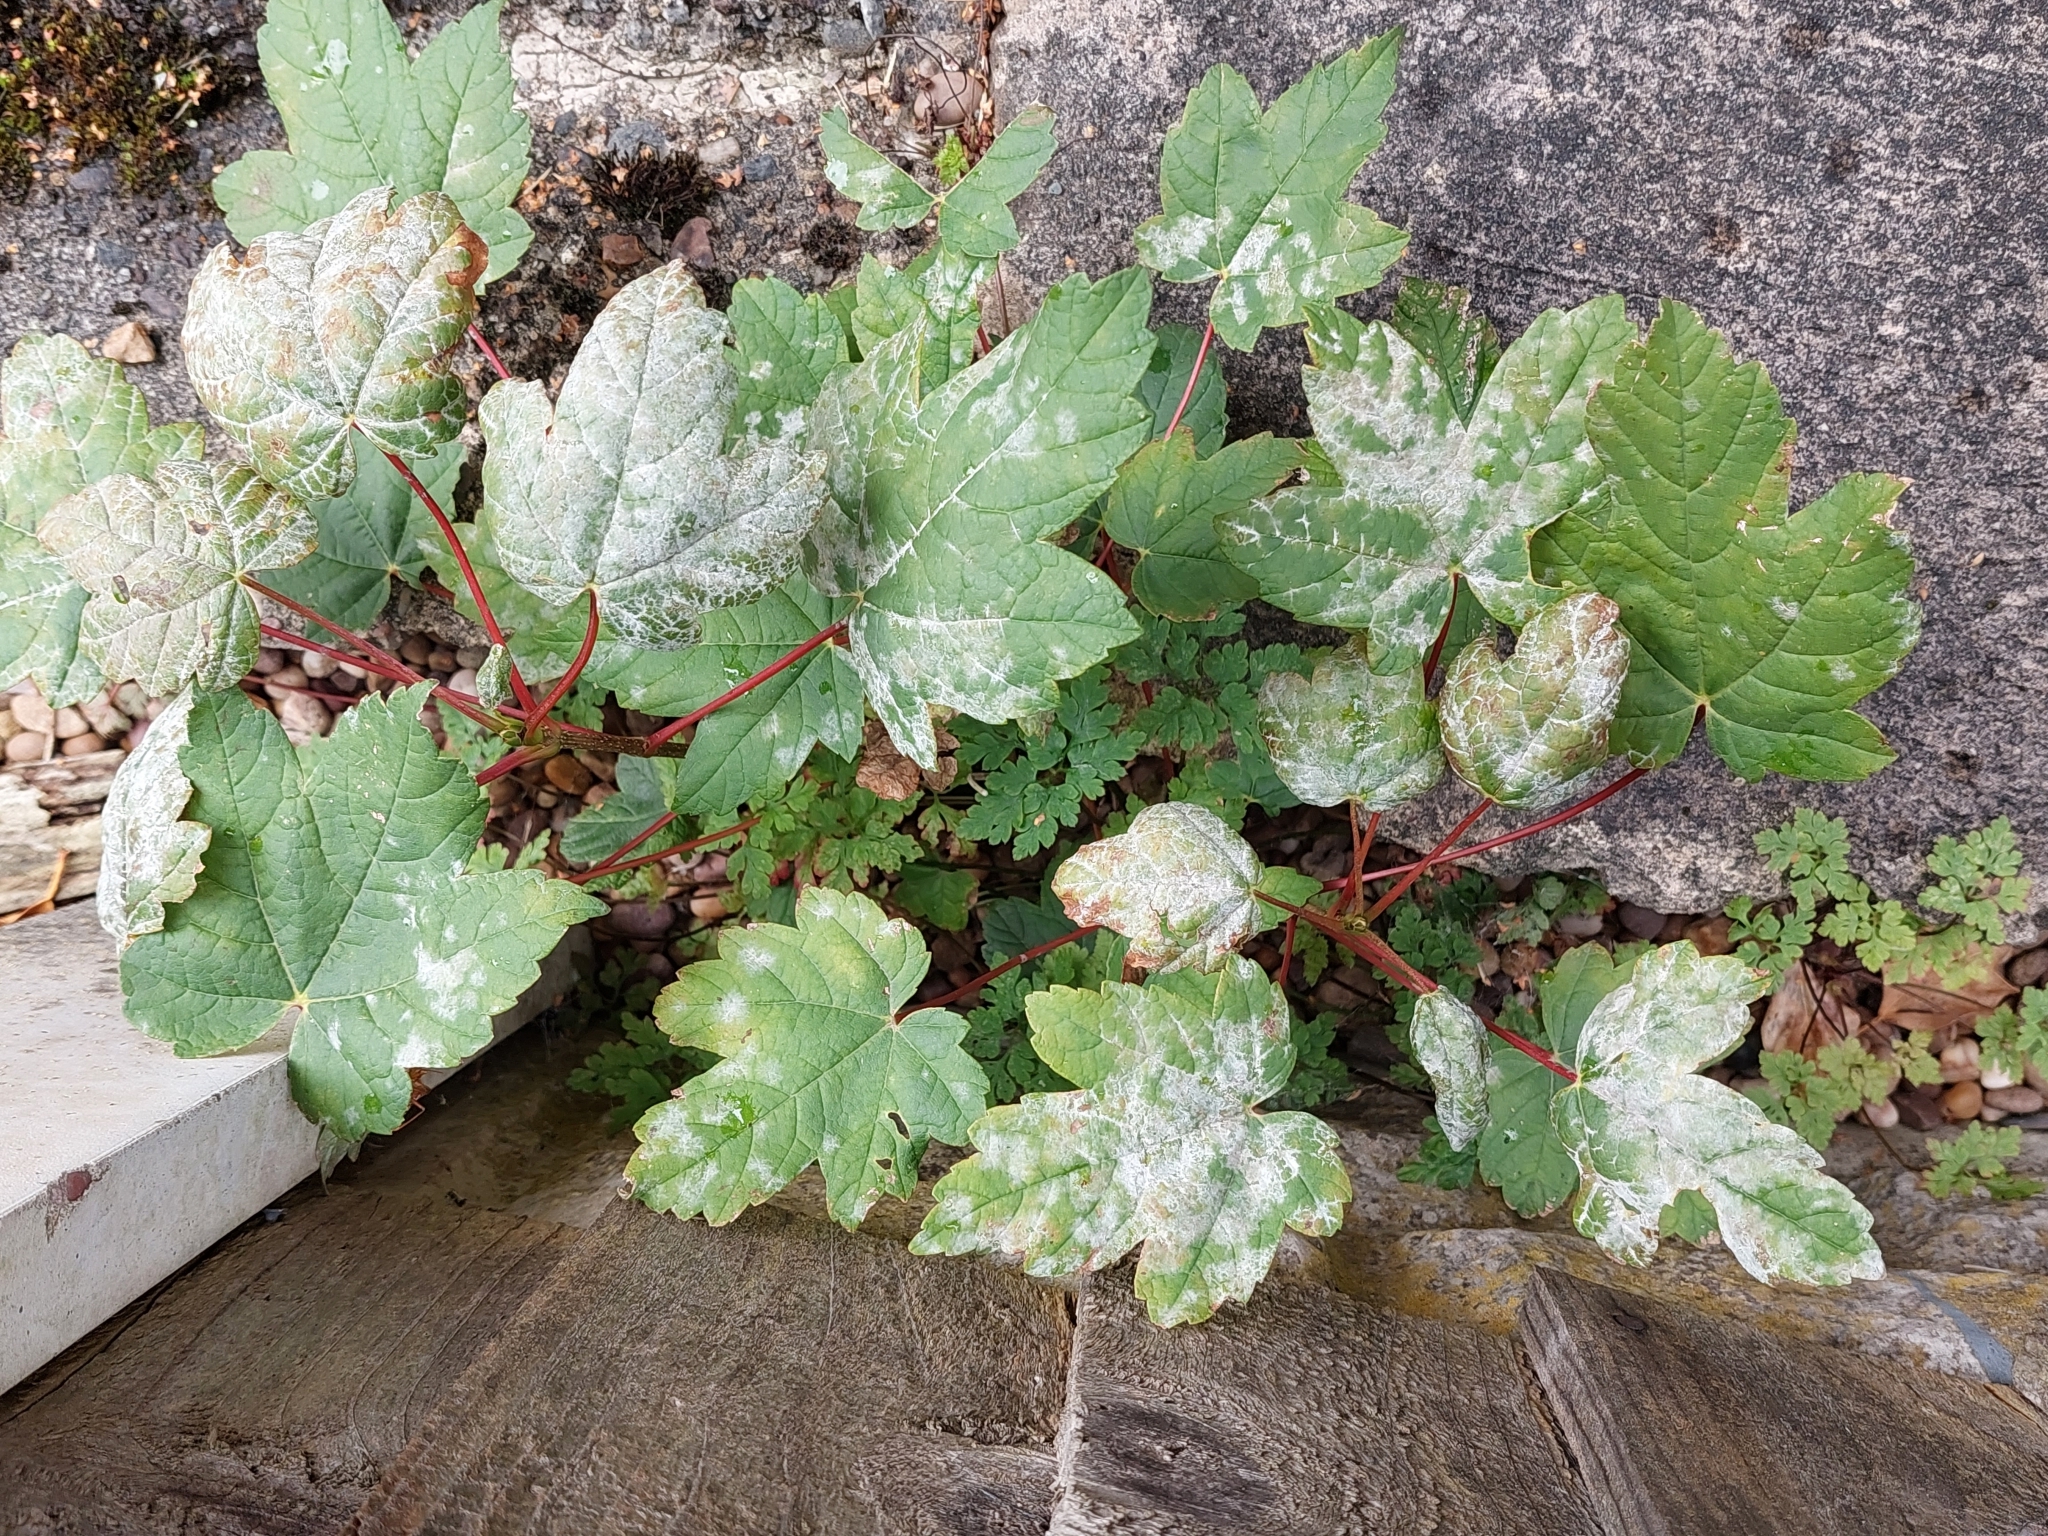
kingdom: Fungi
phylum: Ascomycota
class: Leotiomycetes
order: Helotiales
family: Erysiphaceae
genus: Sawadaea
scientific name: Sawadaea bicornis
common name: Maple mildew
